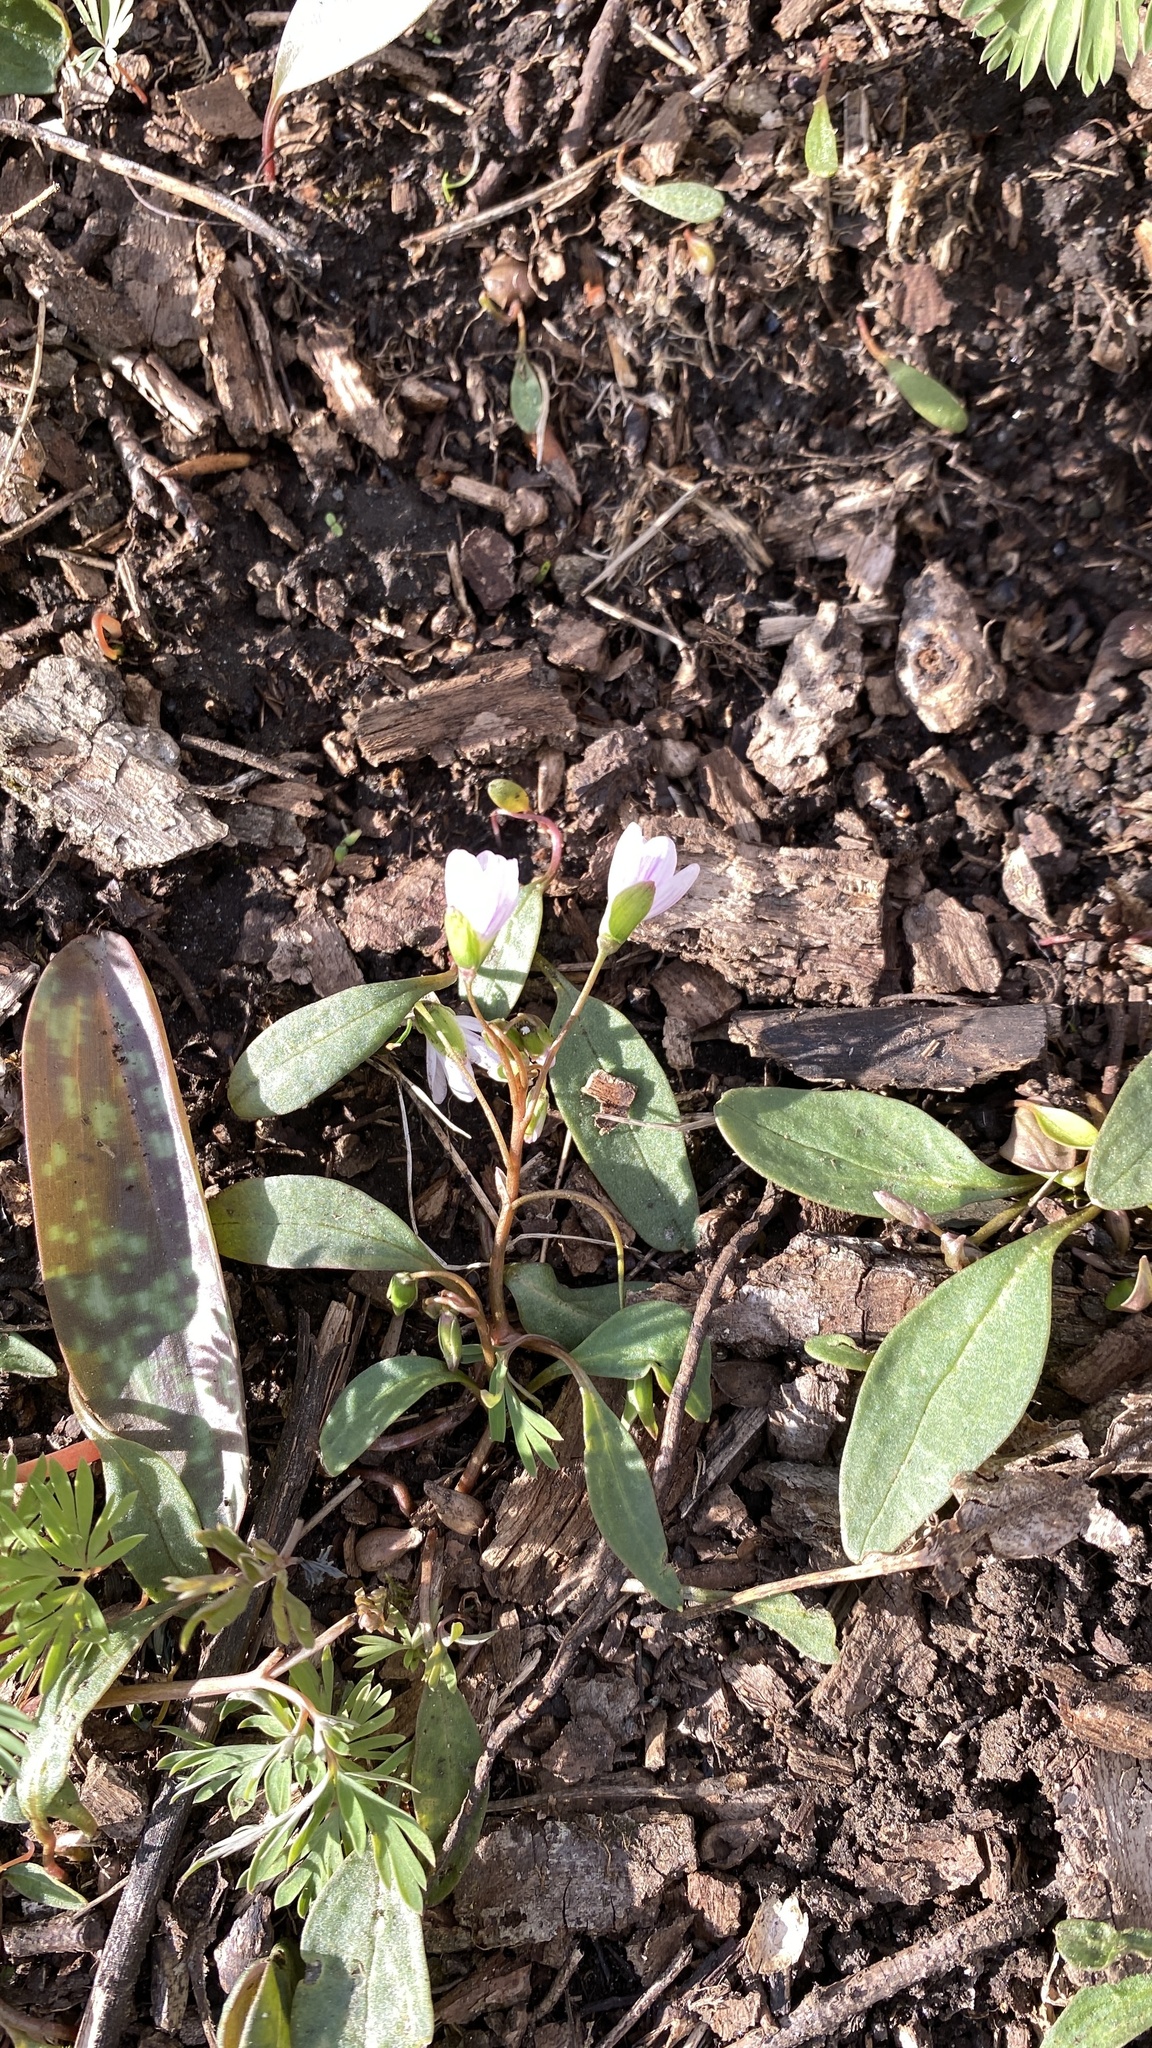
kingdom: Plantae
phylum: Tracheophyta
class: Magnoliopsida
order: Caryophyllales
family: Montiaceae
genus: Claytonia
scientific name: Claytonia caroliniana
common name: Carolina spring beauty
